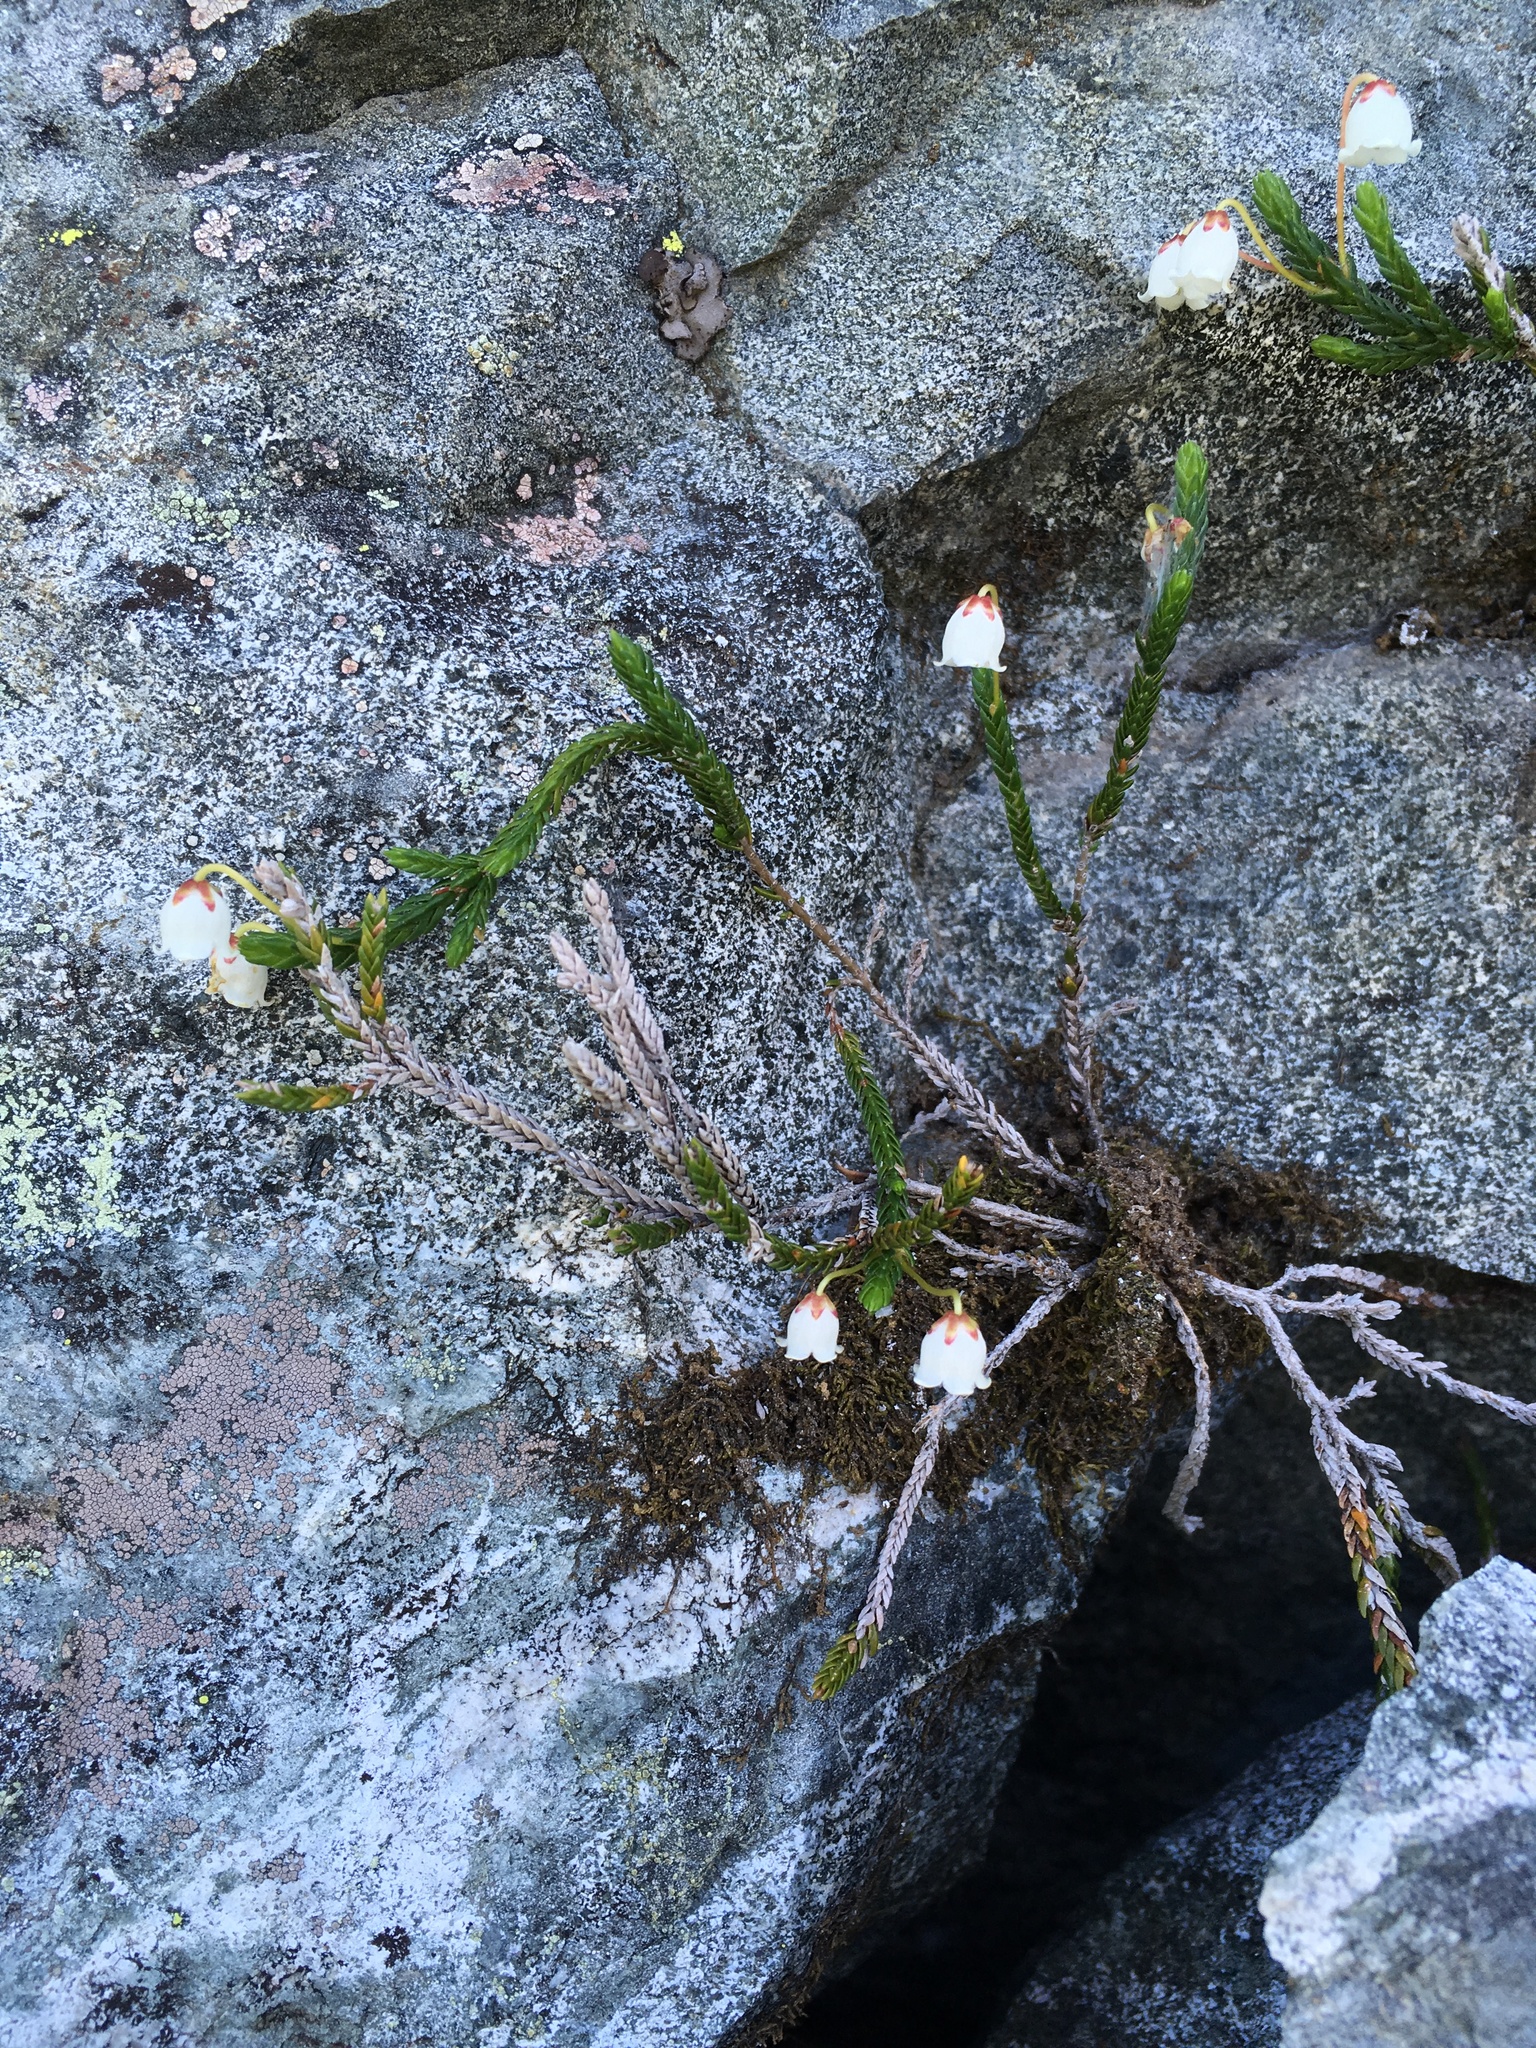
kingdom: Plantae
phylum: Tracheophyta
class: Magnoliopsida
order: Ericales
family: Ericaceae
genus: Cassiope
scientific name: Cassiope mertensiana
